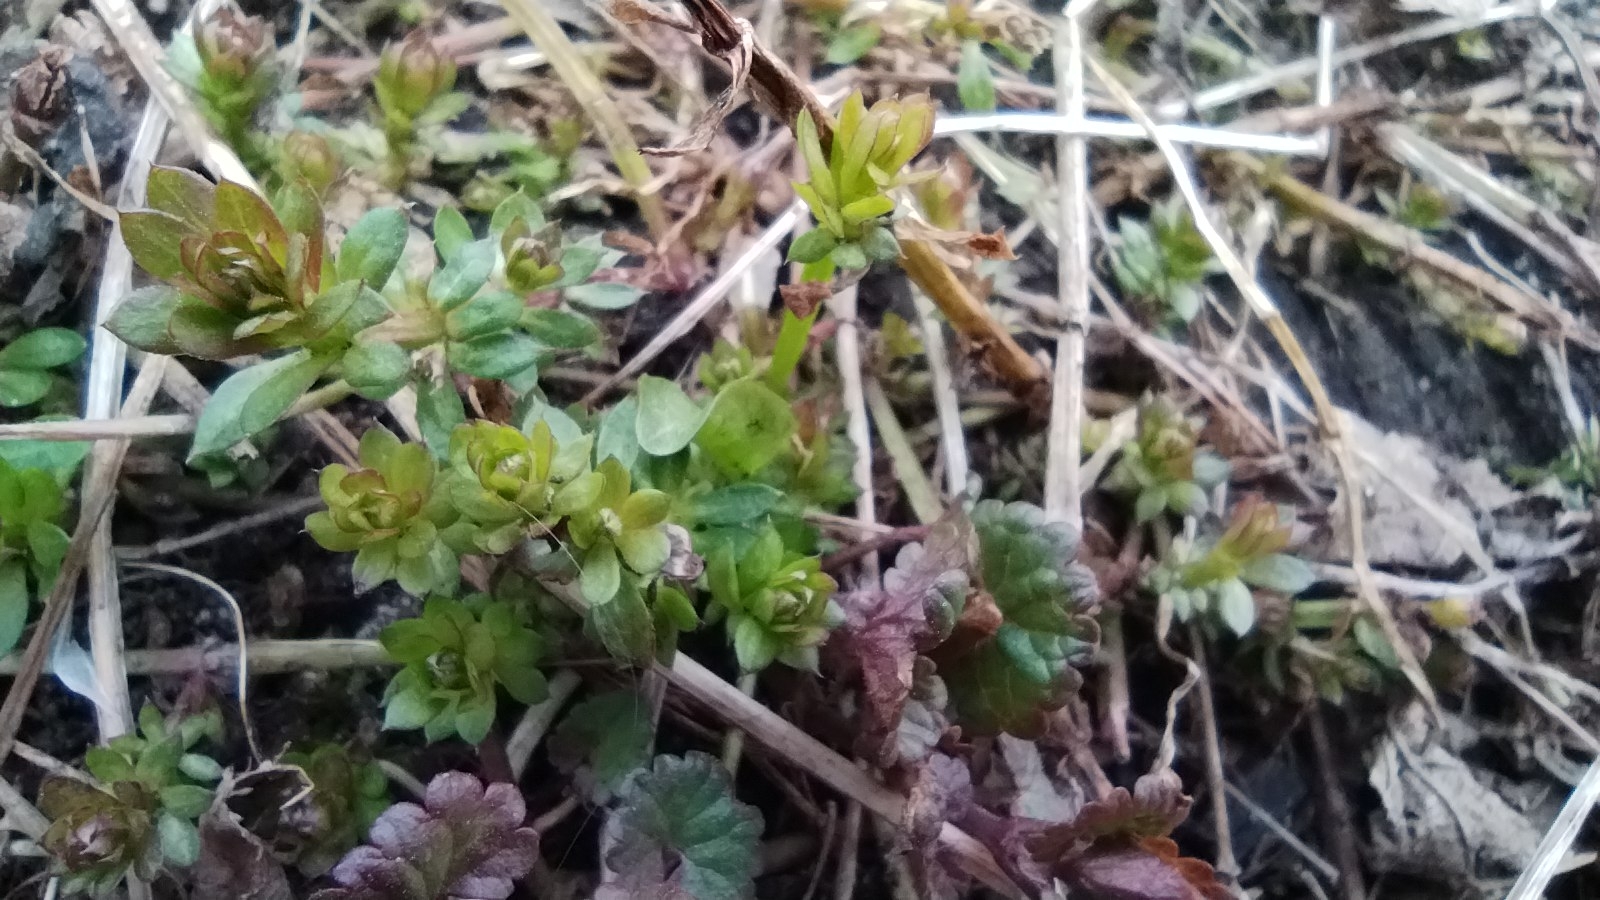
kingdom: Plantae
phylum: Tracheophyta
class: Magnoliopsida
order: Gentianales
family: Rubiaceae
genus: Galium
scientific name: Galium mollugo
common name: Hedge bedstraw
